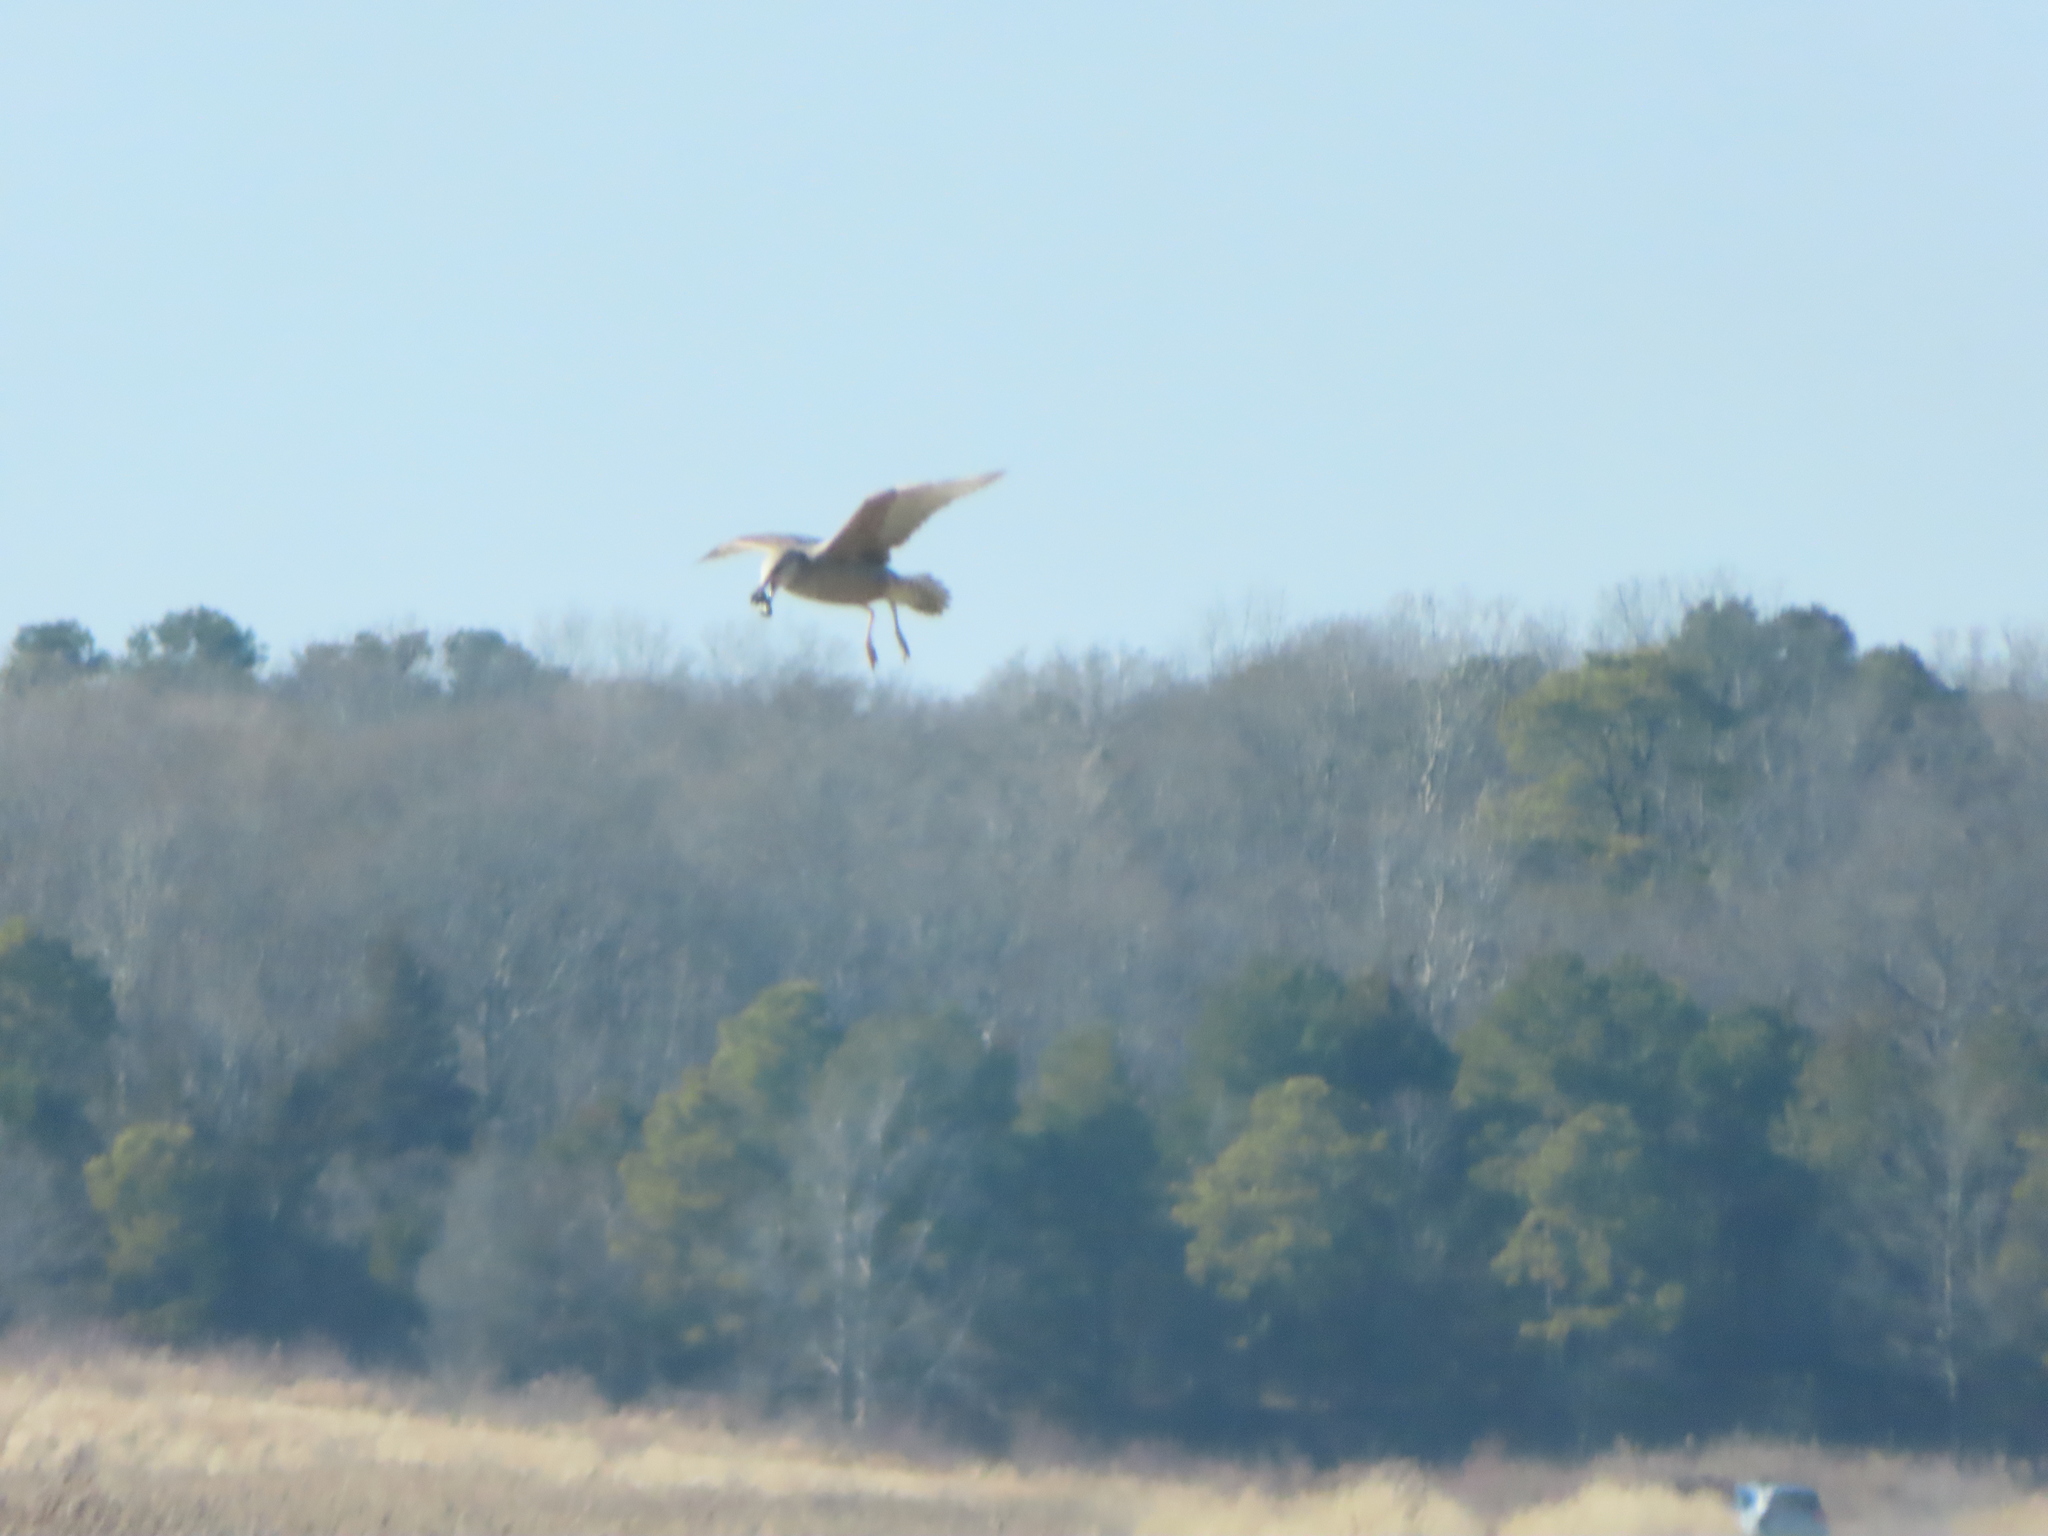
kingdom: Animalia
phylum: Chordata
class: Aves
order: Charadriiformes
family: Laridae
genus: Larus
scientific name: Larus argentatus
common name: Herring gull
